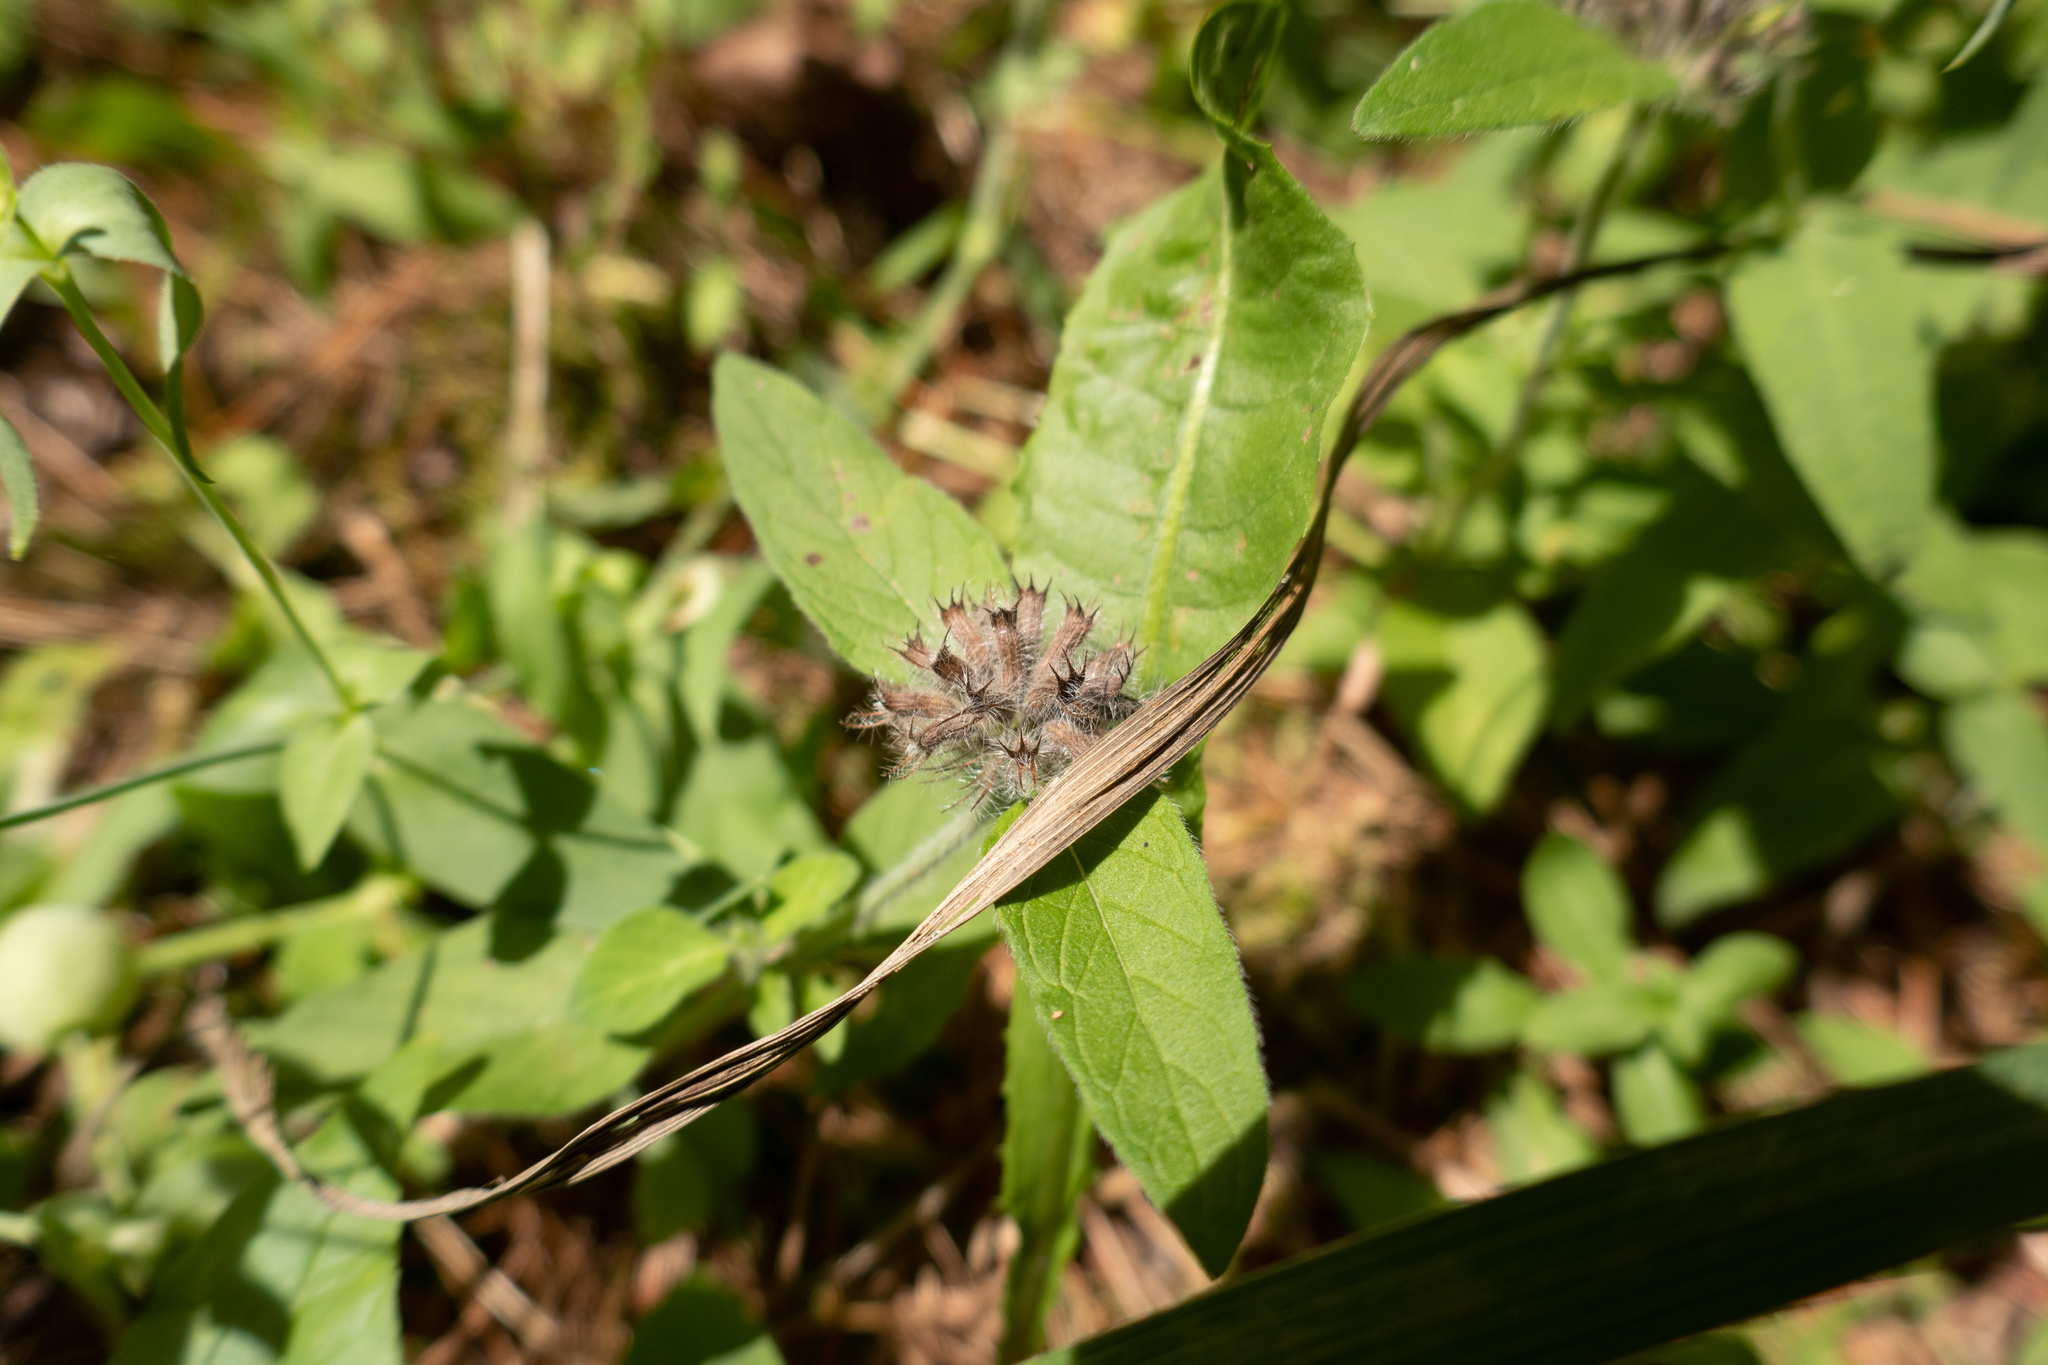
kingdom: Plantae
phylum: Tracheophyta
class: Magnoliopsida
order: Lamiales
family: Lamiaceae
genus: Clinopodium
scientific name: Clinopodium vulgare
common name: Wild basil
